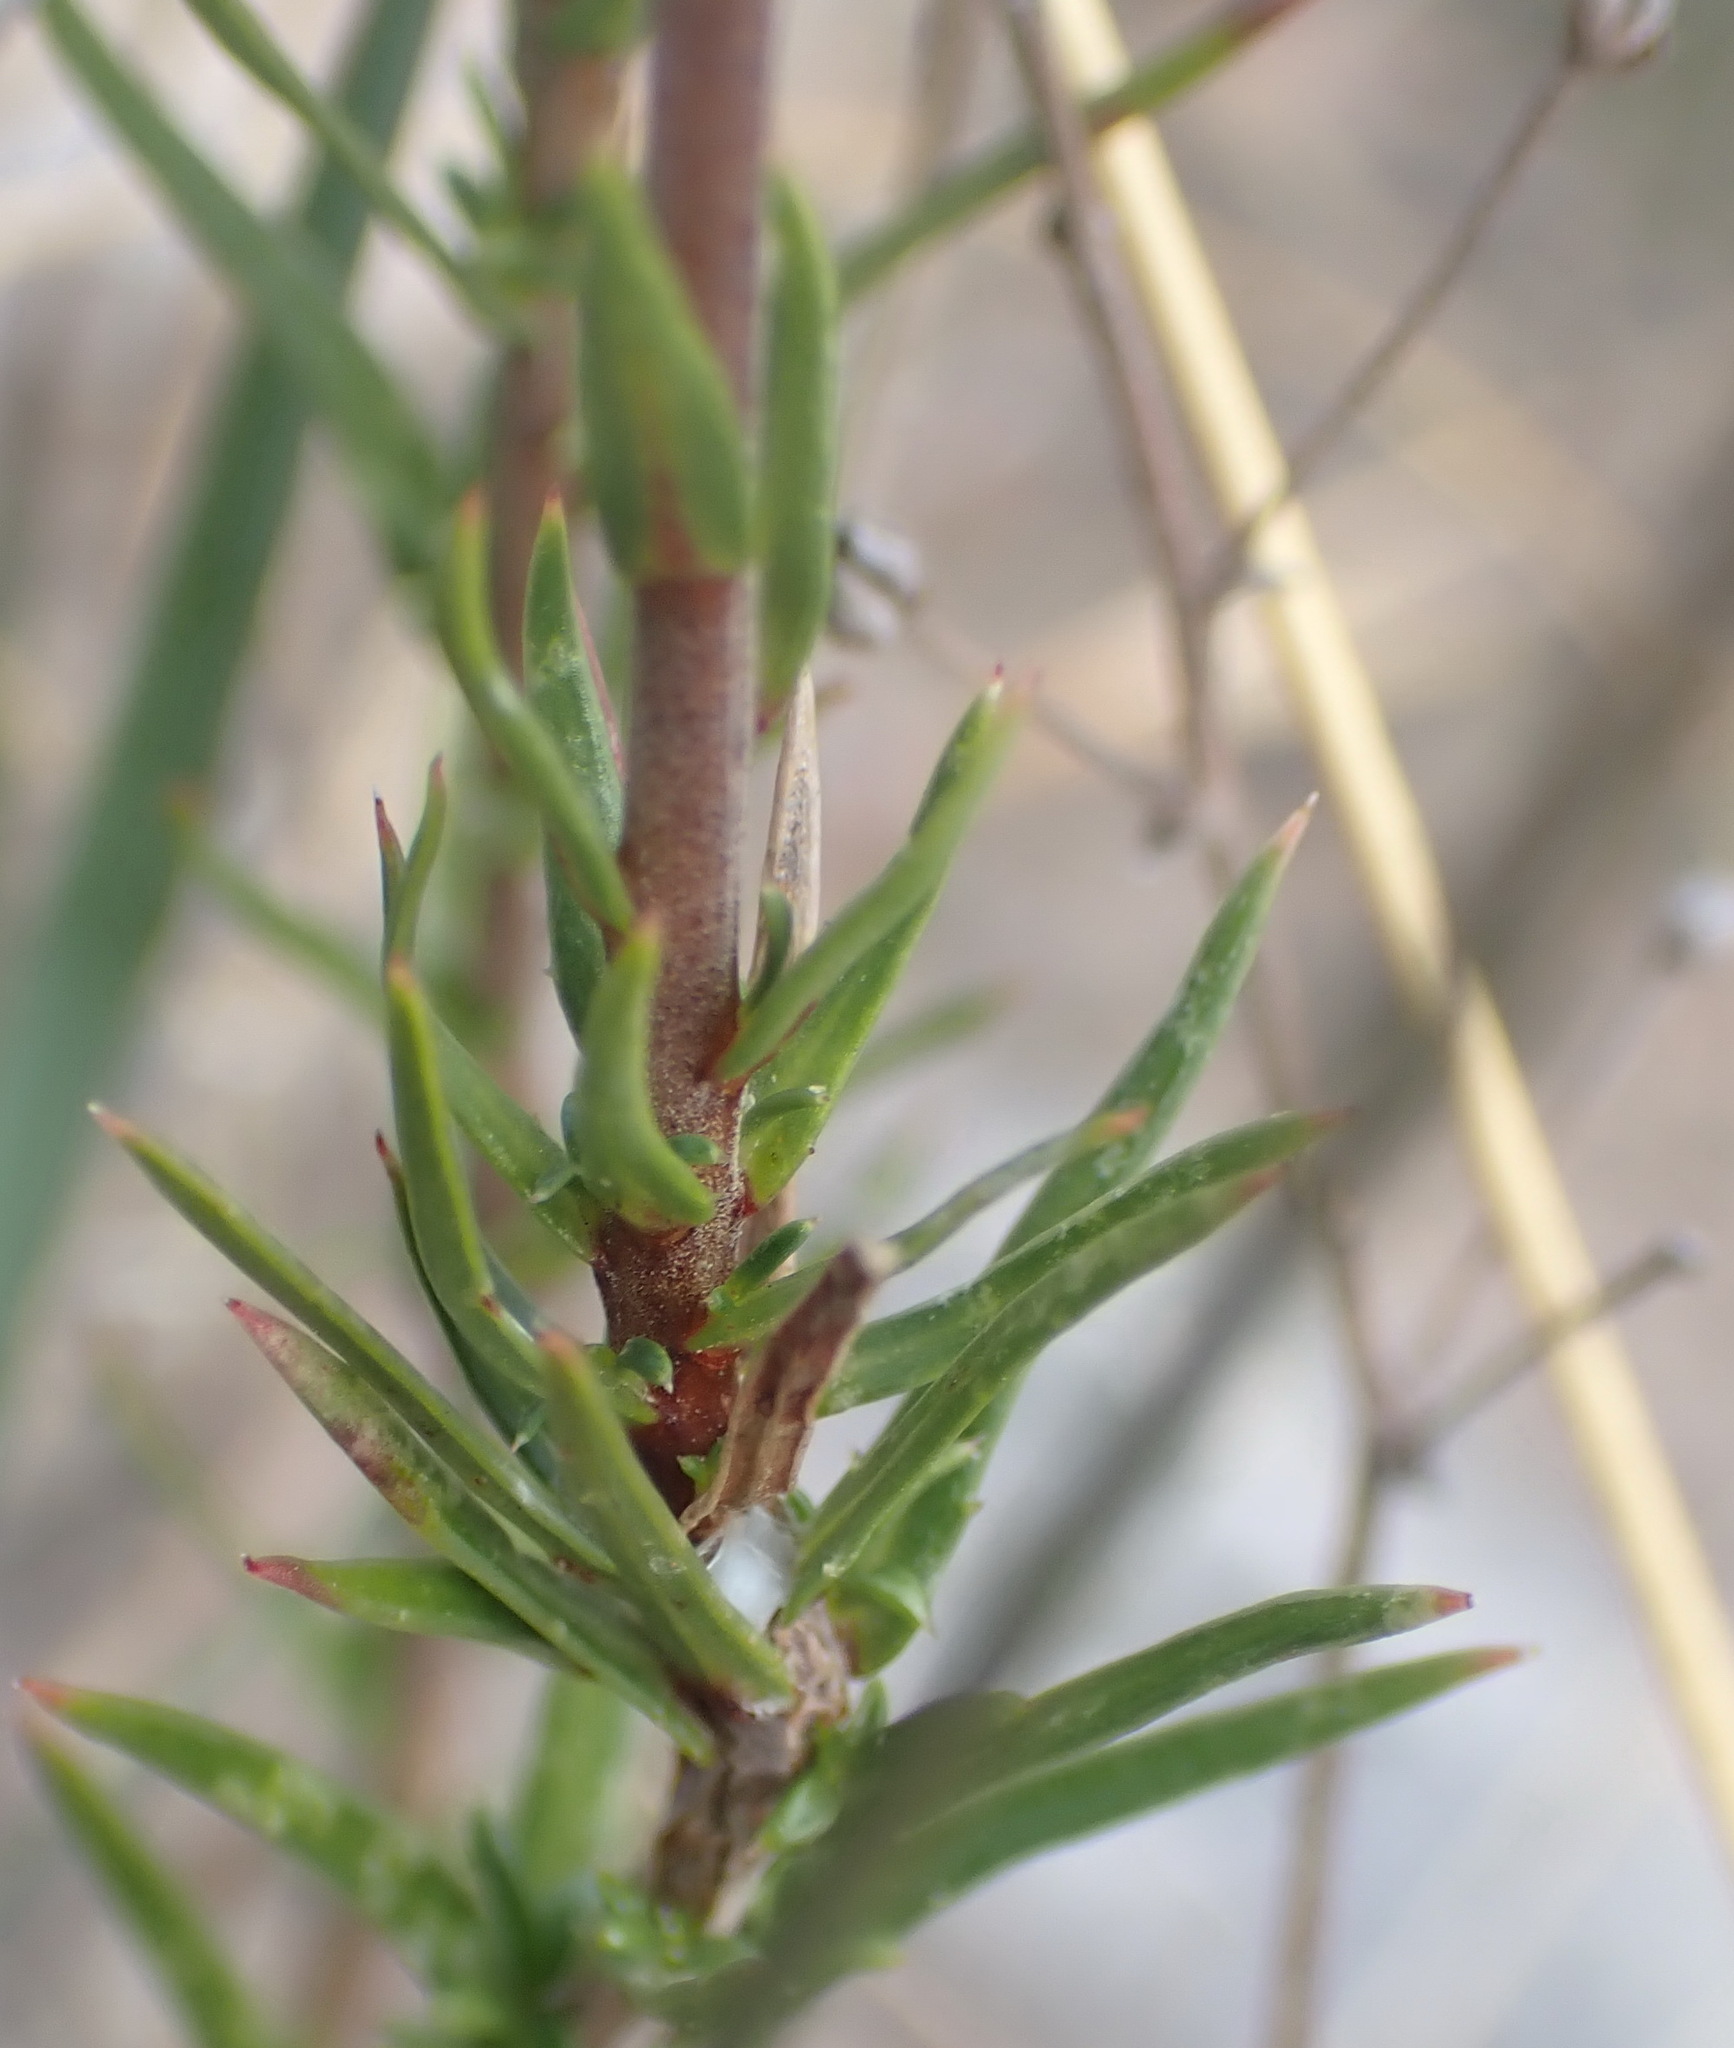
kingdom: Plantae
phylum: Tracheophyta
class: Magnoliopsida
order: Asterales
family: Campanulaceae
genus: Prismatocarpus
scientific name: Prismatocarpus candolleanus
